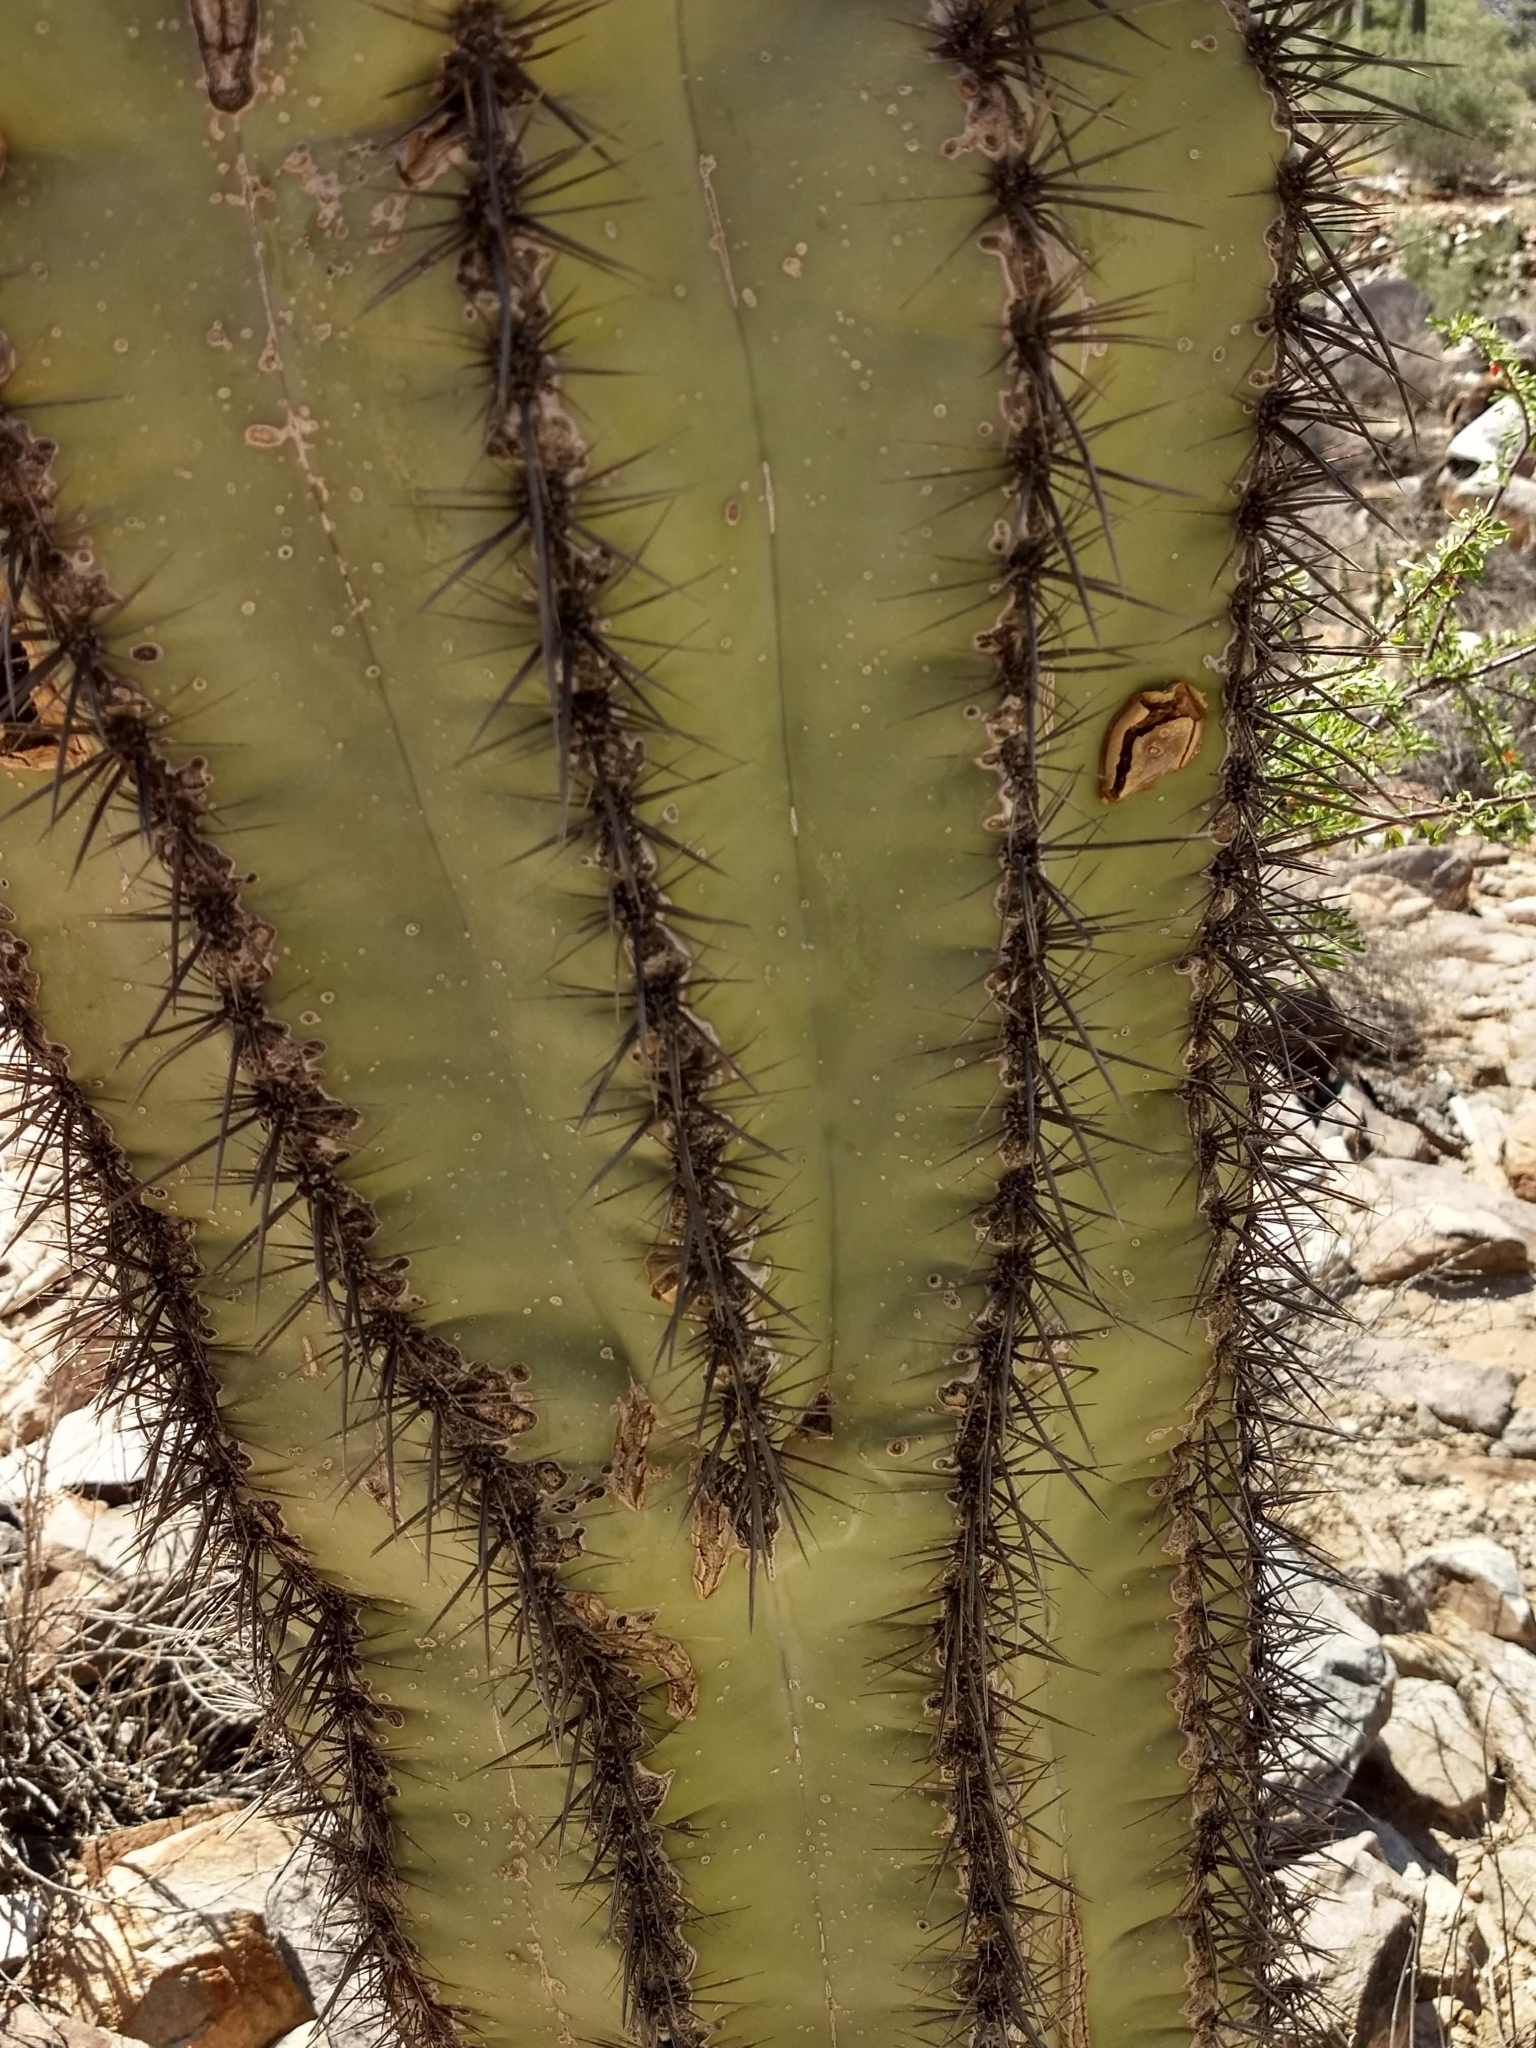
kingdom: Plantae
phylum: Tracheophyta
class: Magnoliopsida
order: Caryophyllales
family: Cactaceae
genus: Carnegiea
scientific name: Carnegiea gigantea
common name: Saguaro
